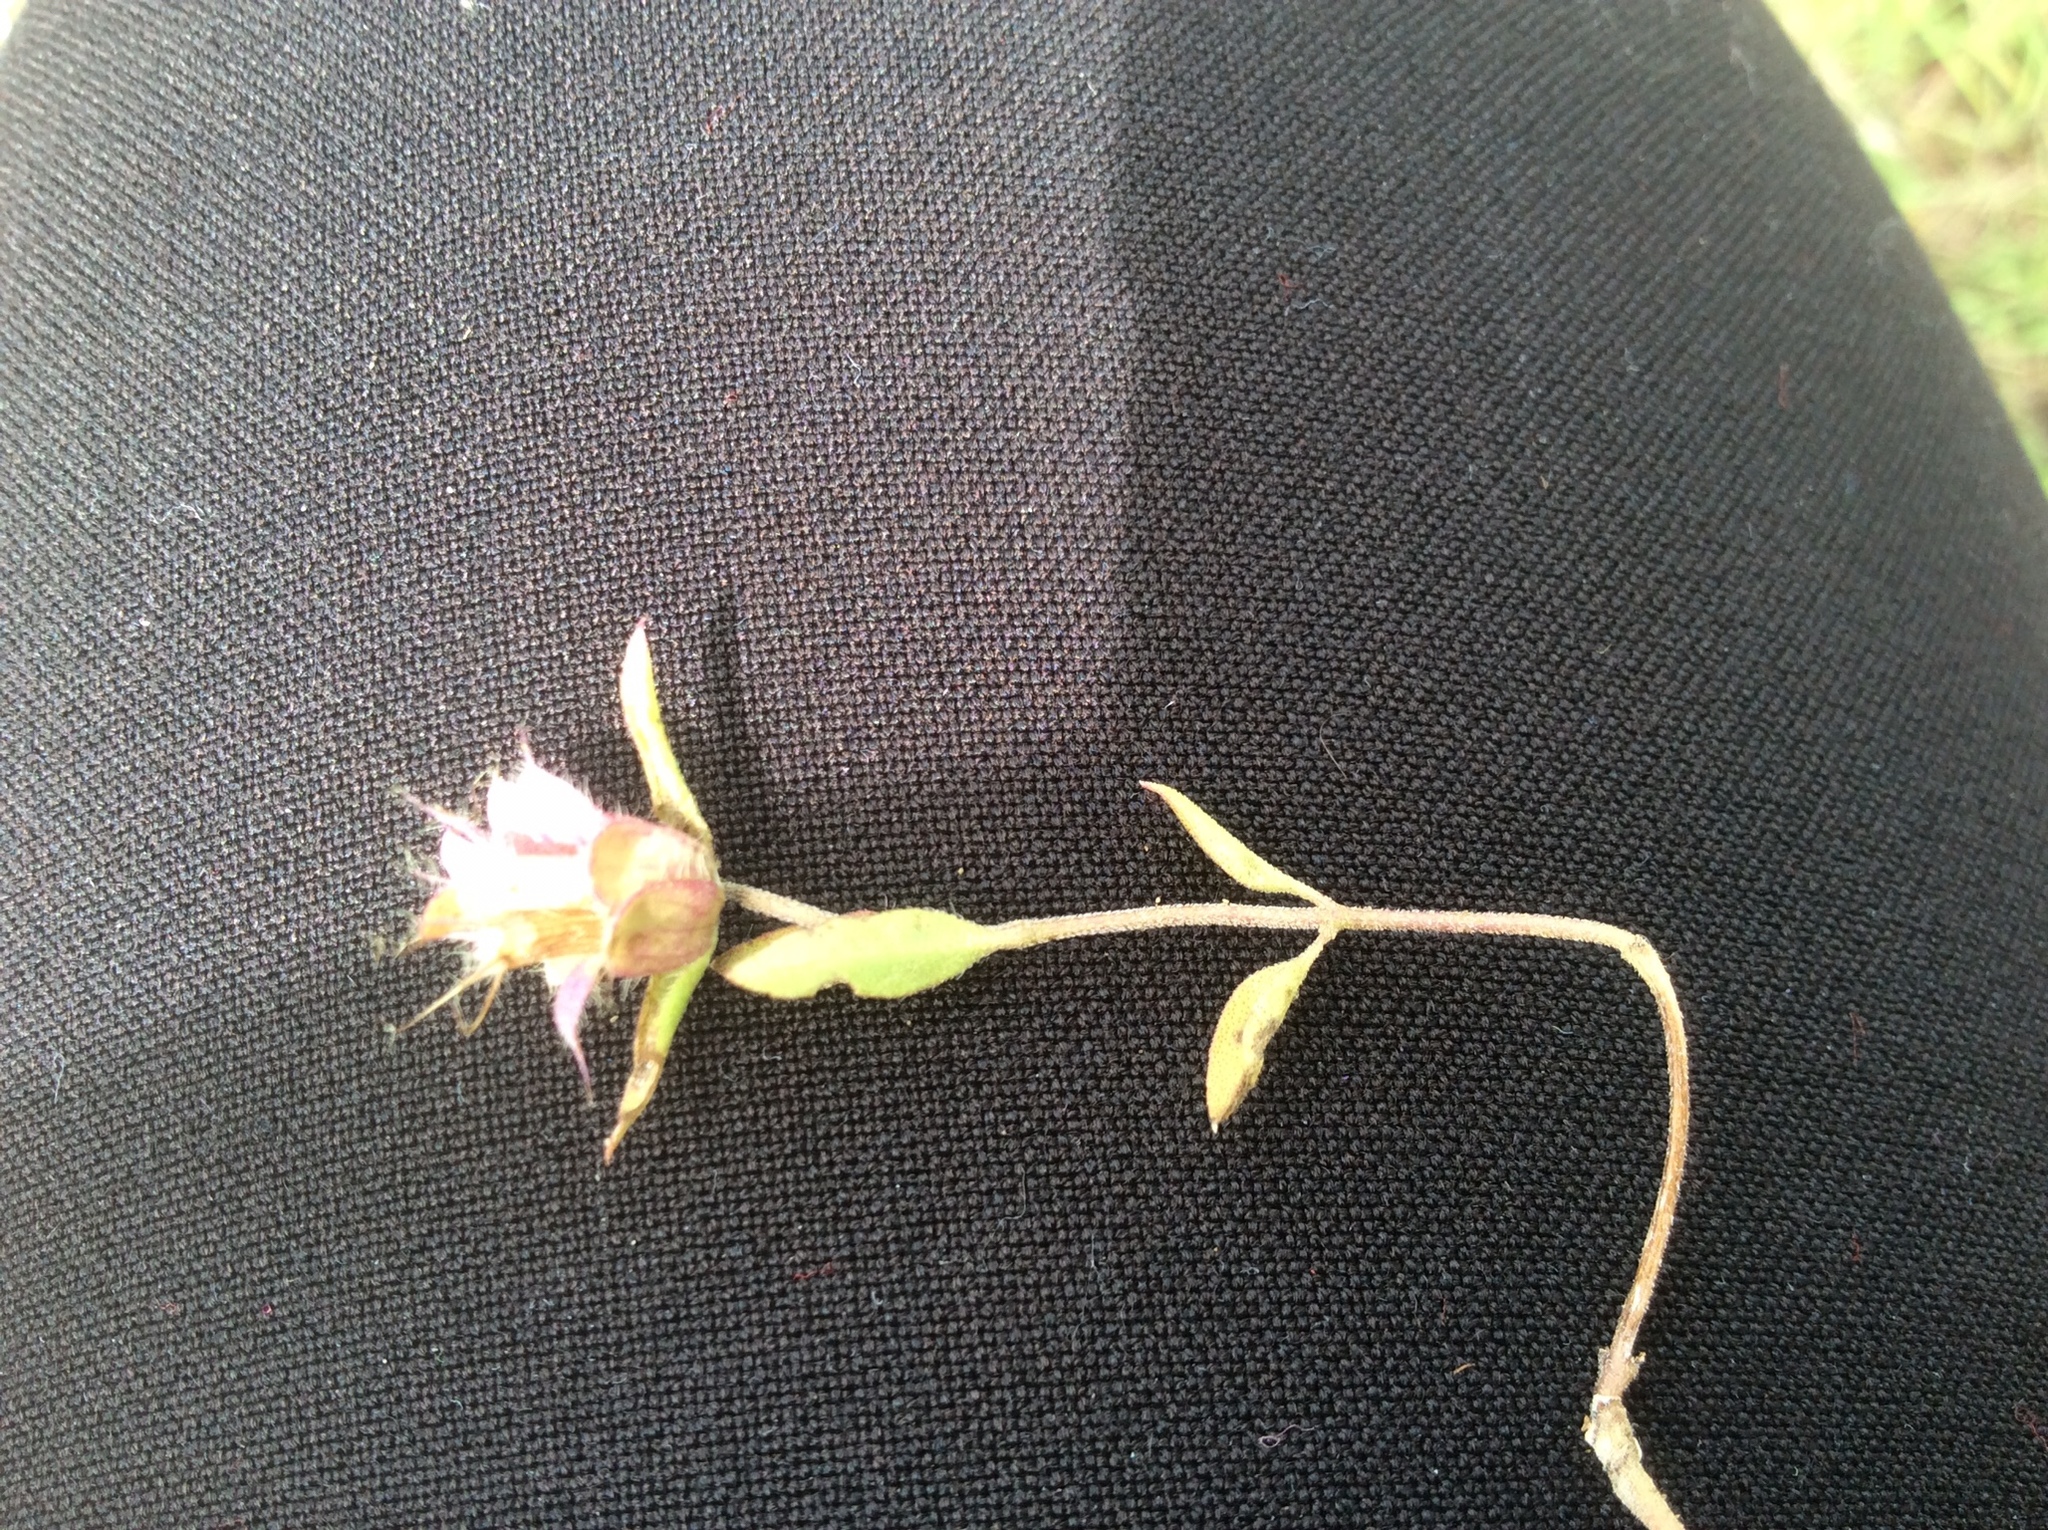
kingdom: Plantae
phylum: Tracheophyta
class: Magnoliopsida
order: Lamiales
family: Lamiaceae
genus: Monarda
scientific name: Monarda citriodora
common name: Lemon beebalm
